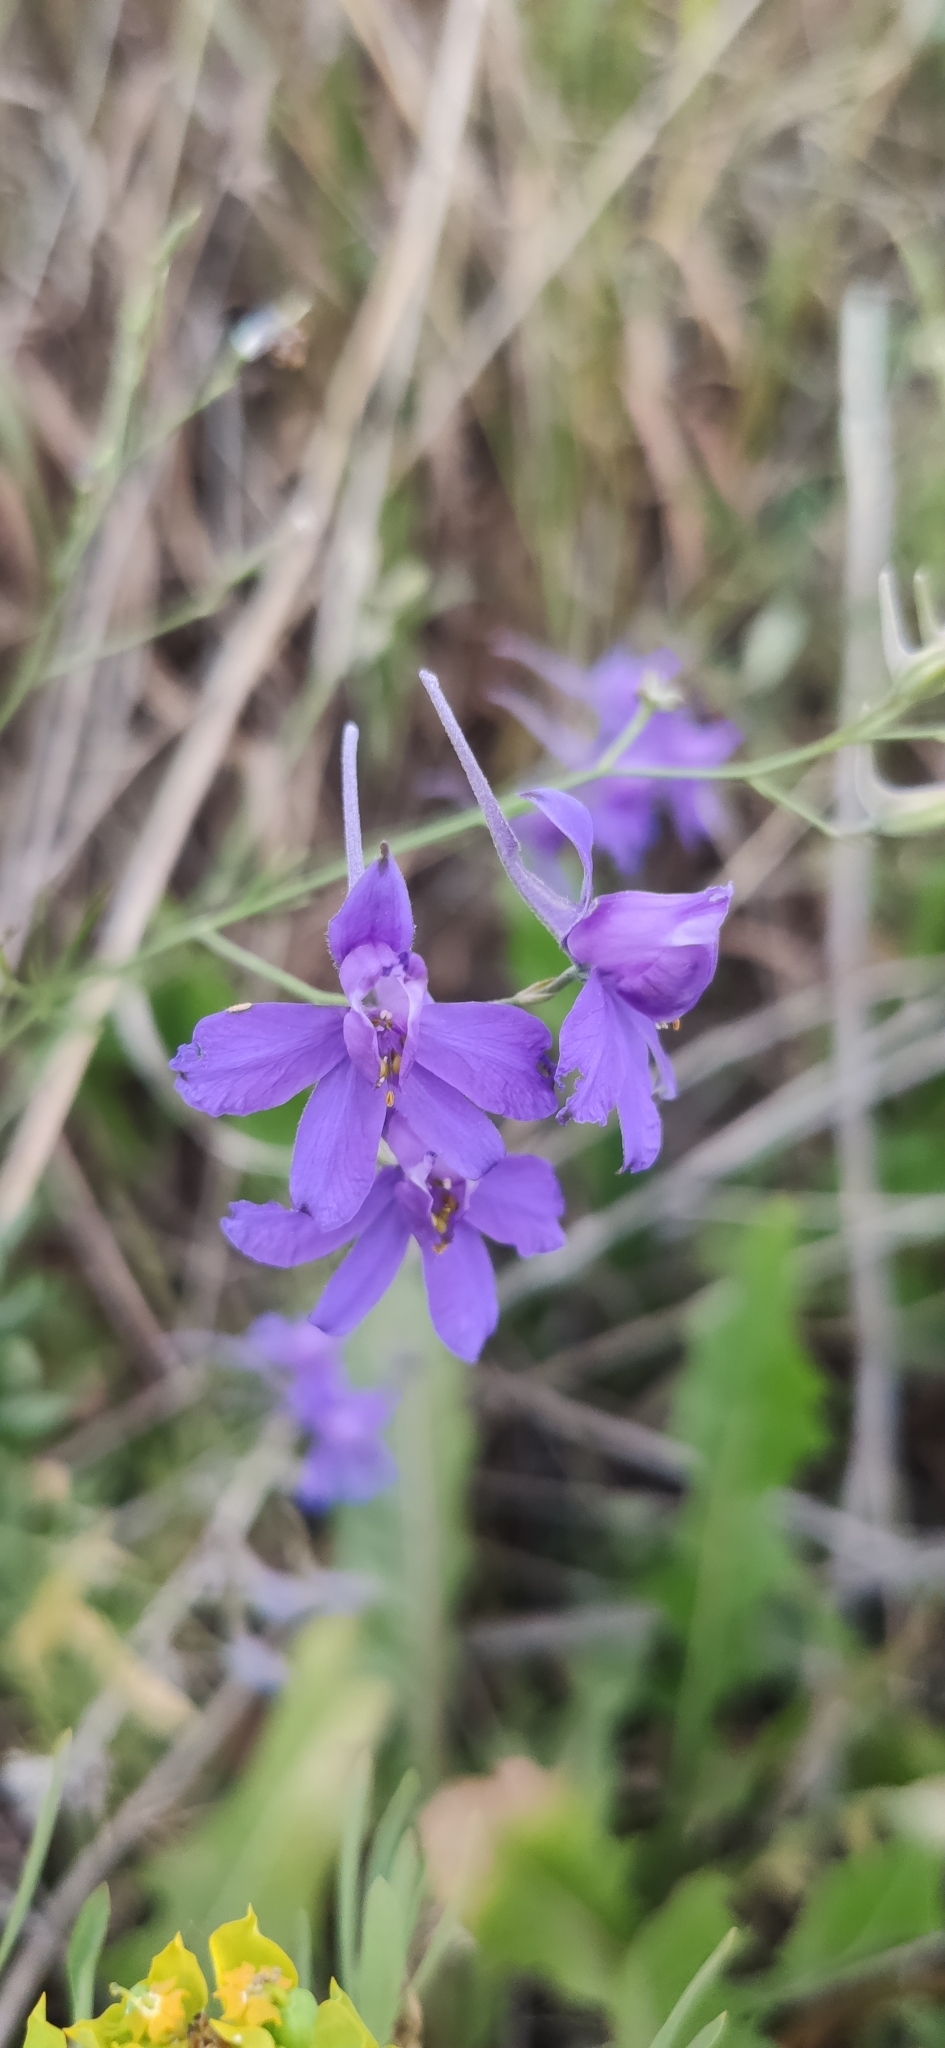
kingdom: Plantae
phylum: Tracheophyta
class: Magnoliopsida
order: Ranunculales
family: Ranunculaceae
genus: Delphinium
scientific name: Delphinium consolida
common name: Branching larkspur
